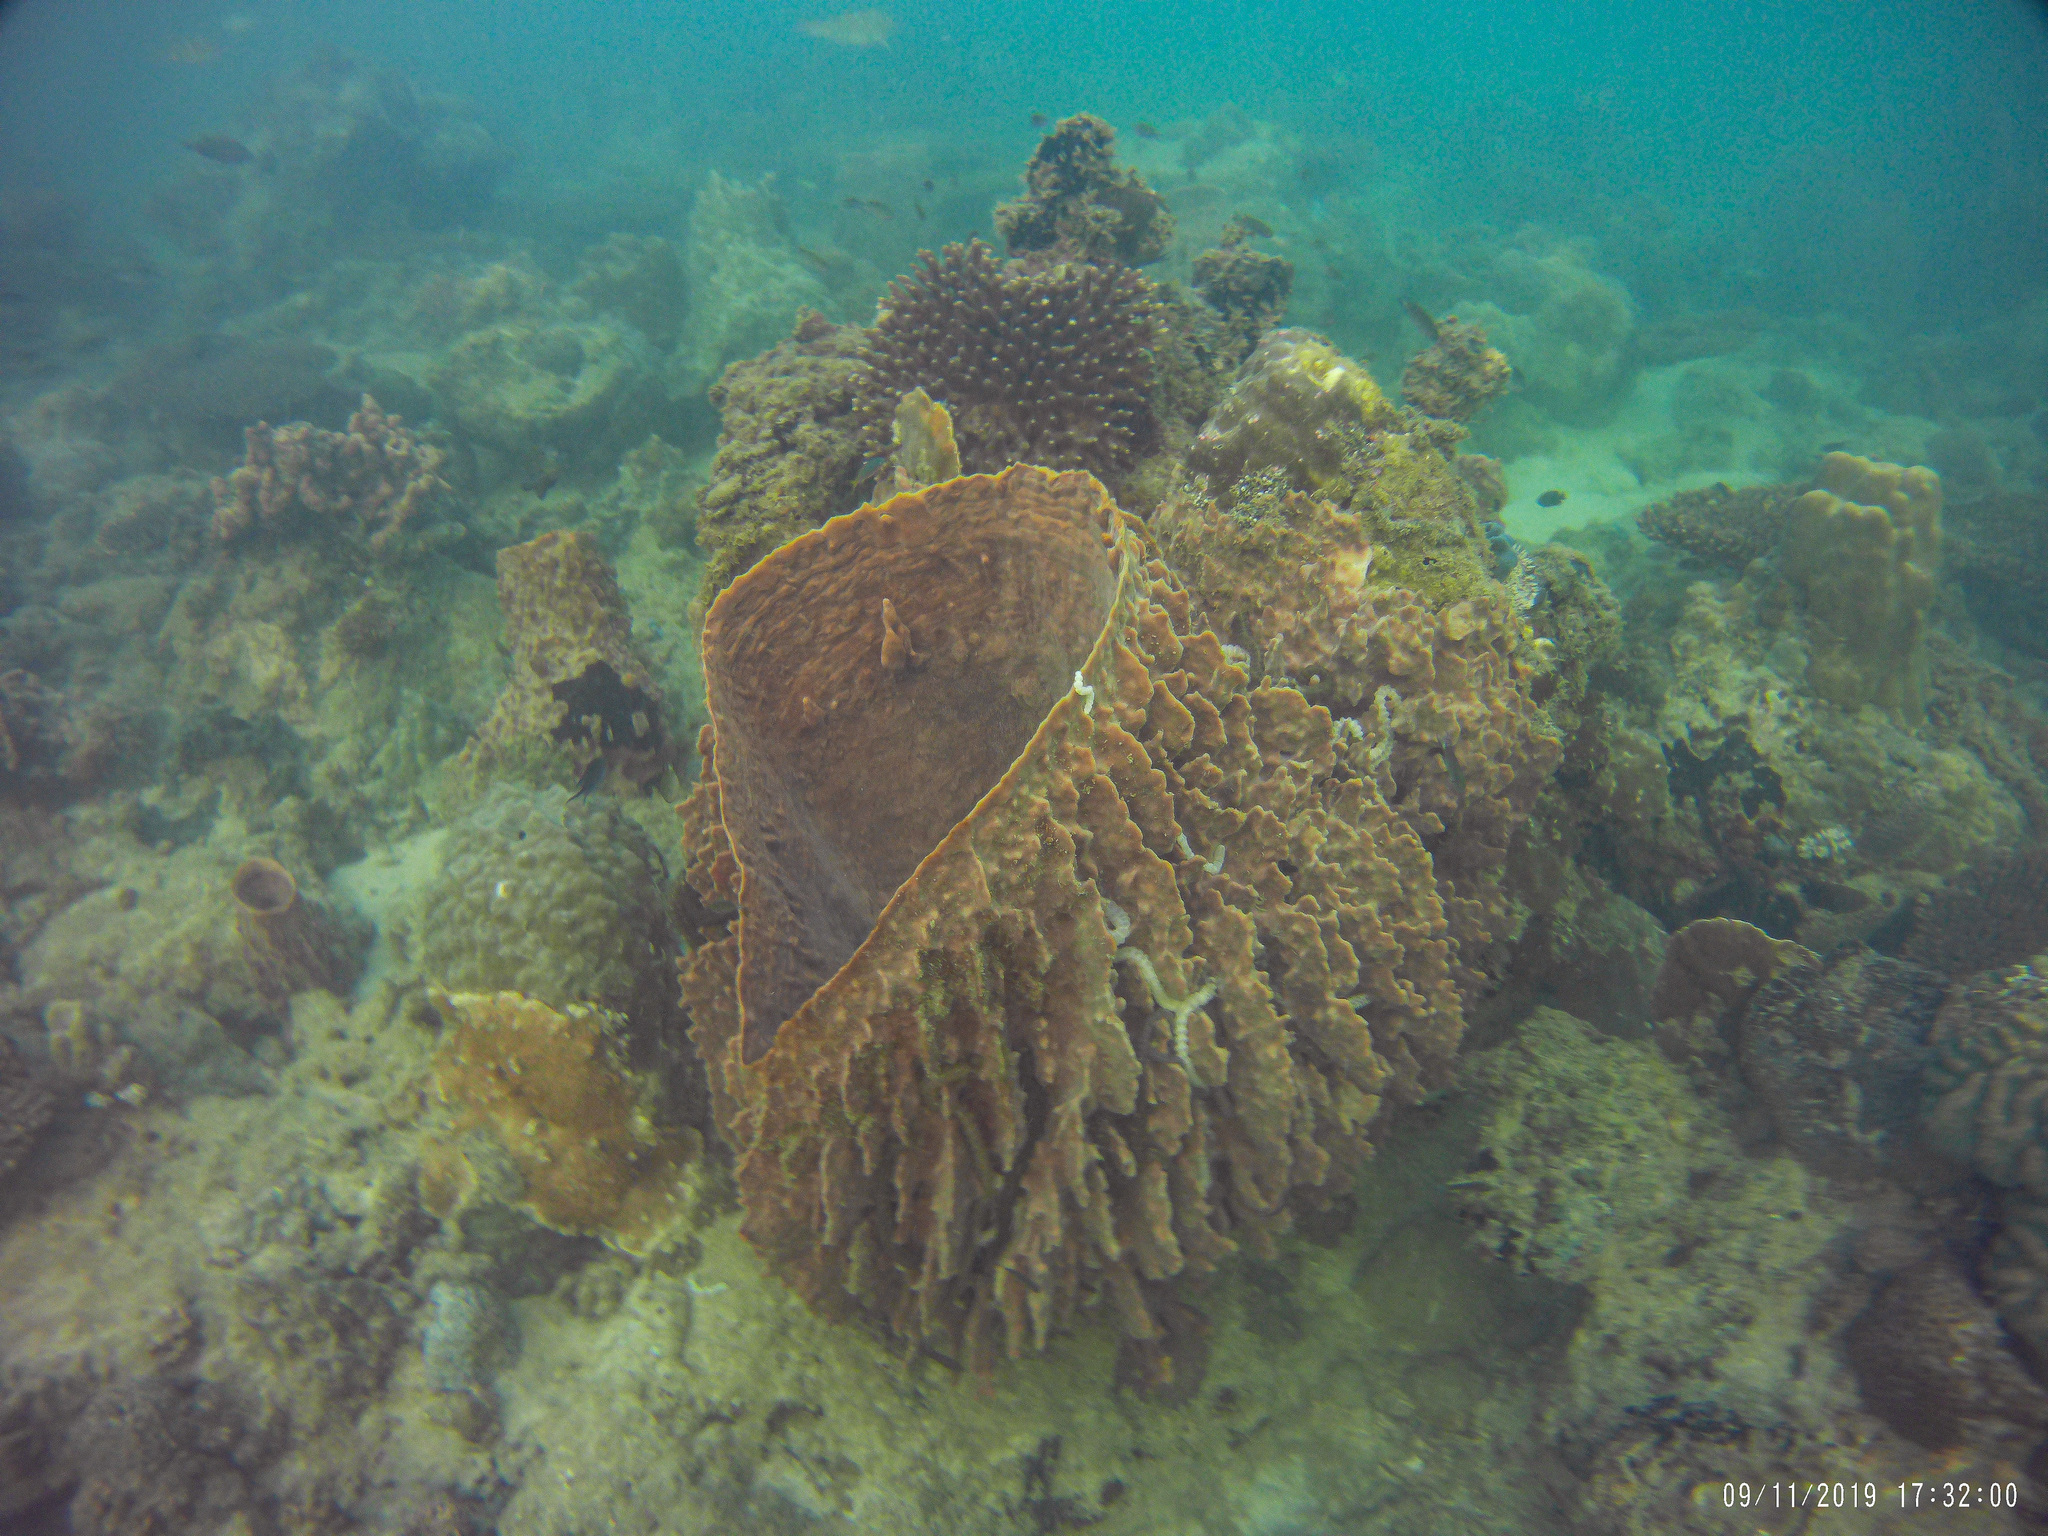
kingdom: Animalia
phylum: Porifera
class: Demospongiae
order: Haplosclerida
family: Petrosiidae
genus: Xestospongia
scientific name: Xestospongia testudinaria
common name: Barrel sponge
